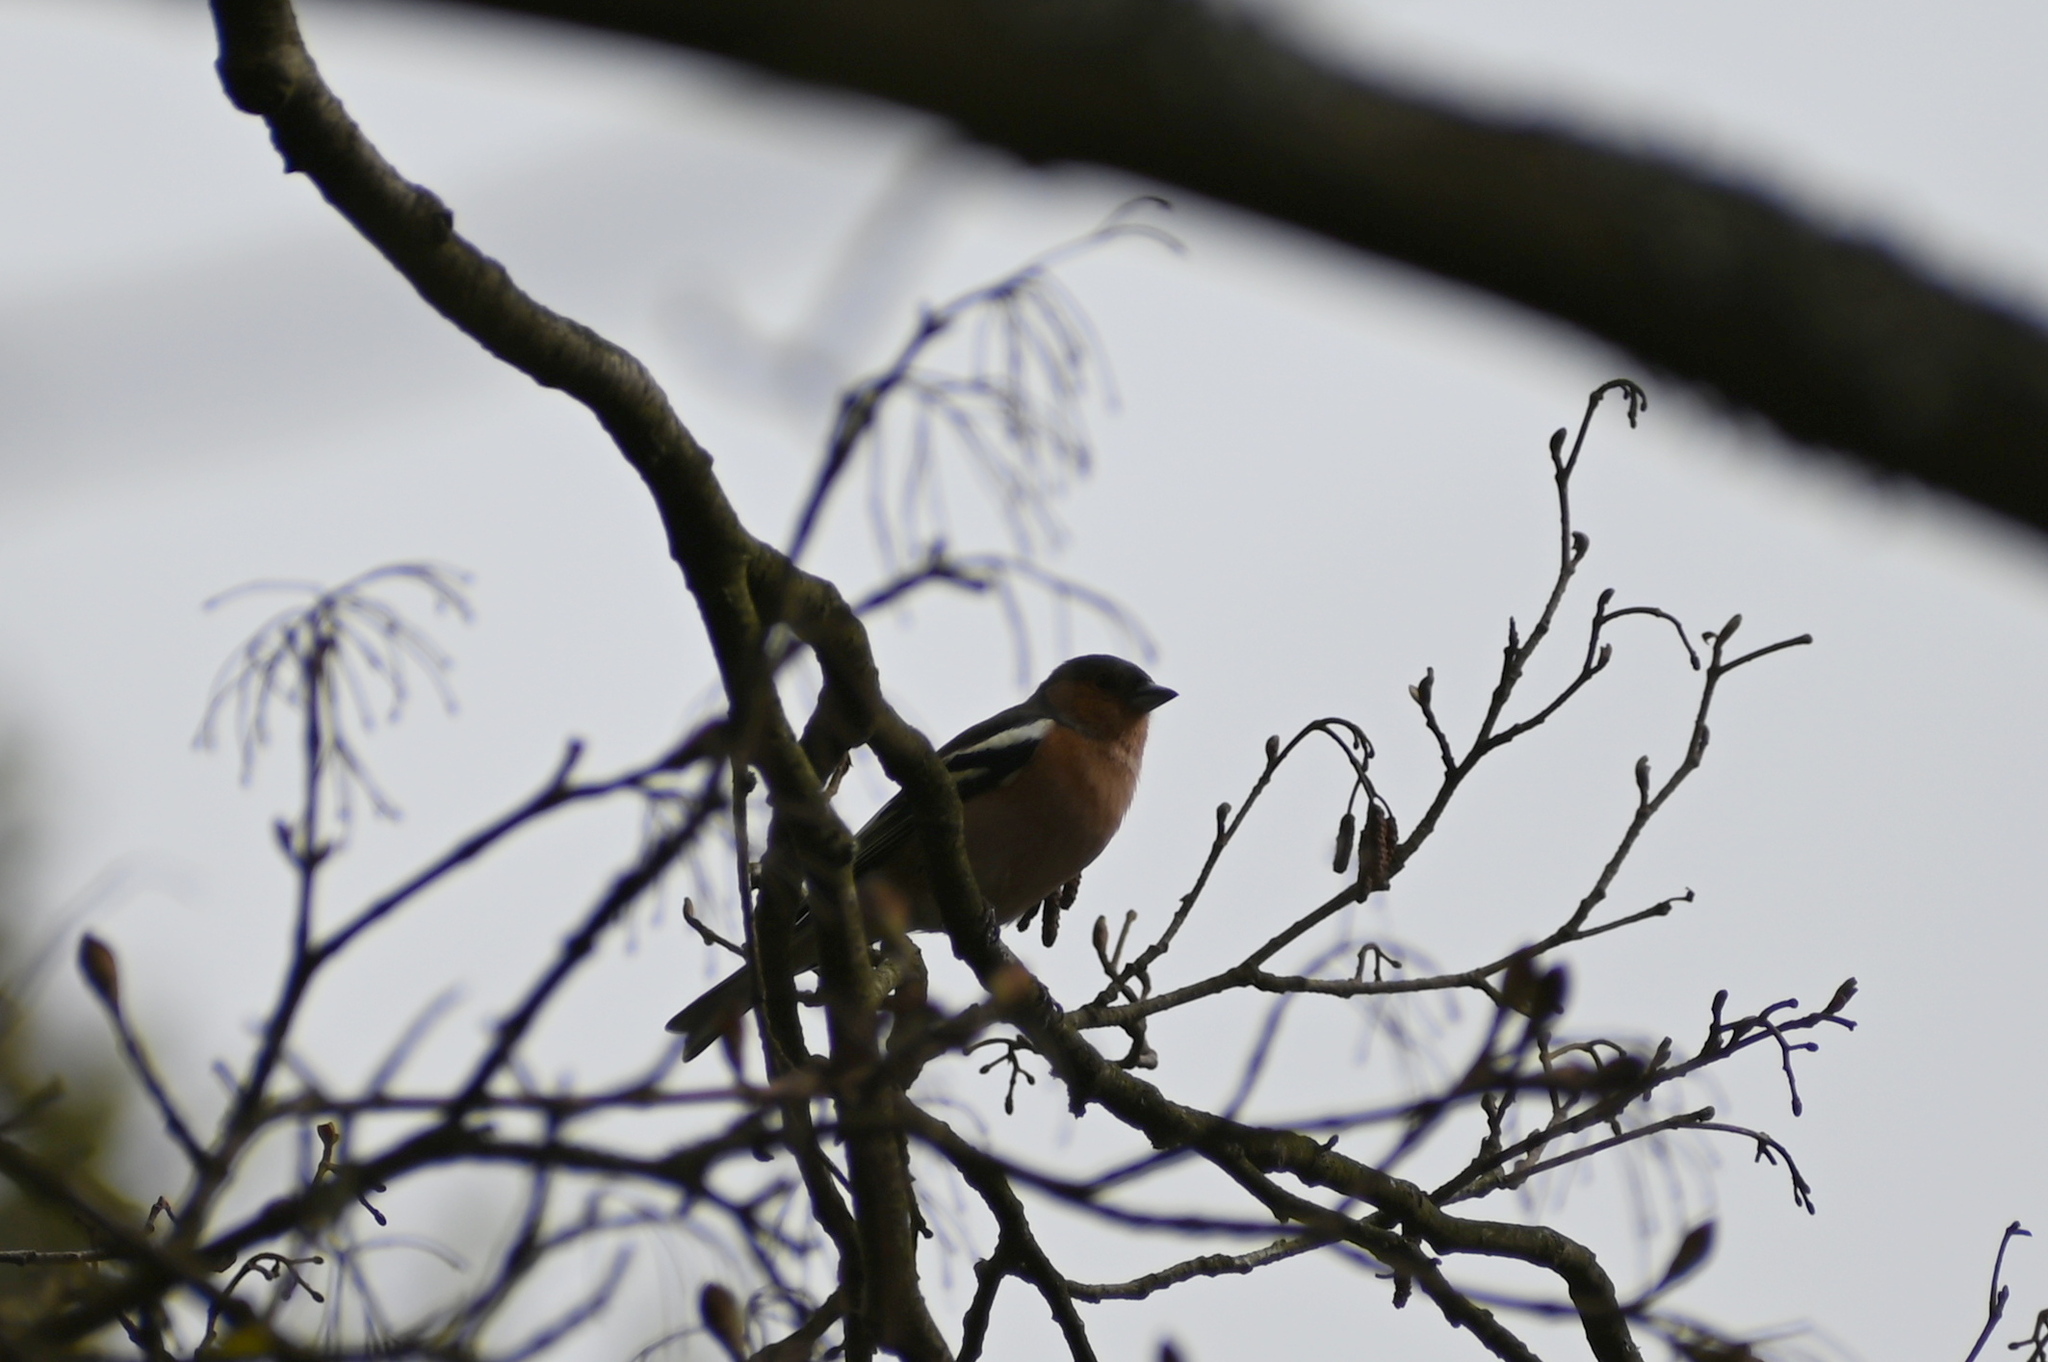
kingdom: Animalia
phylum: Chordata
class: Aves
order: Passeriformes
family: Fringillidae
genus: Fringilla
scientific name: Fringilla coelebs
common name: Common chaffinch
